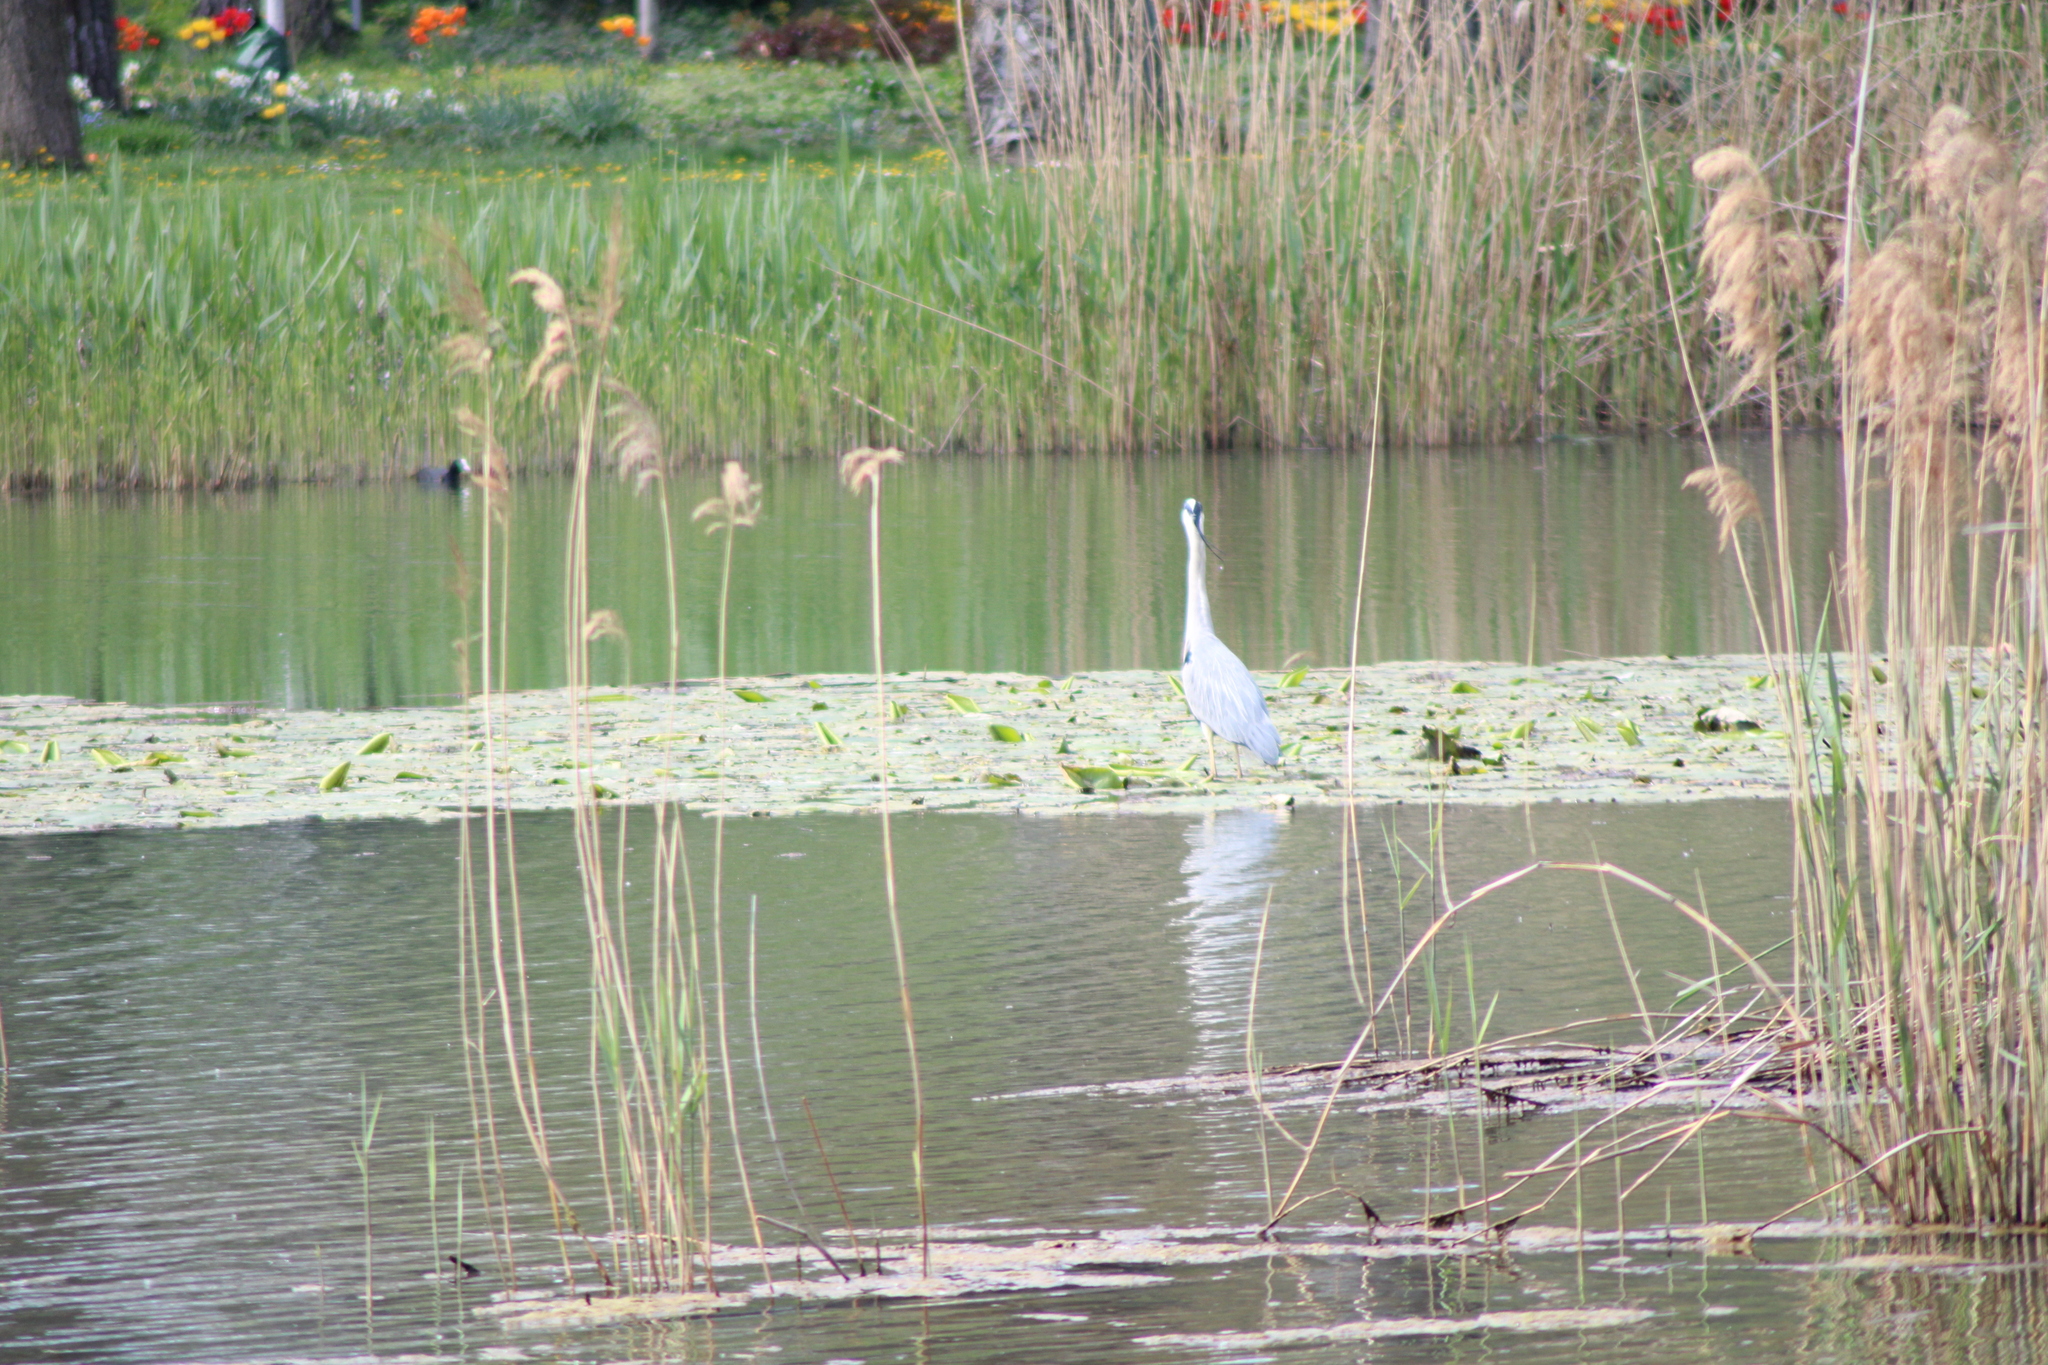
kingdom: Animalia
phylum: Chordata
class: Aves
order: Pelecaniformes
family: Ardeidae
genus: Ardea
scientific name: Ardea cinerea
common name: Grey heron
